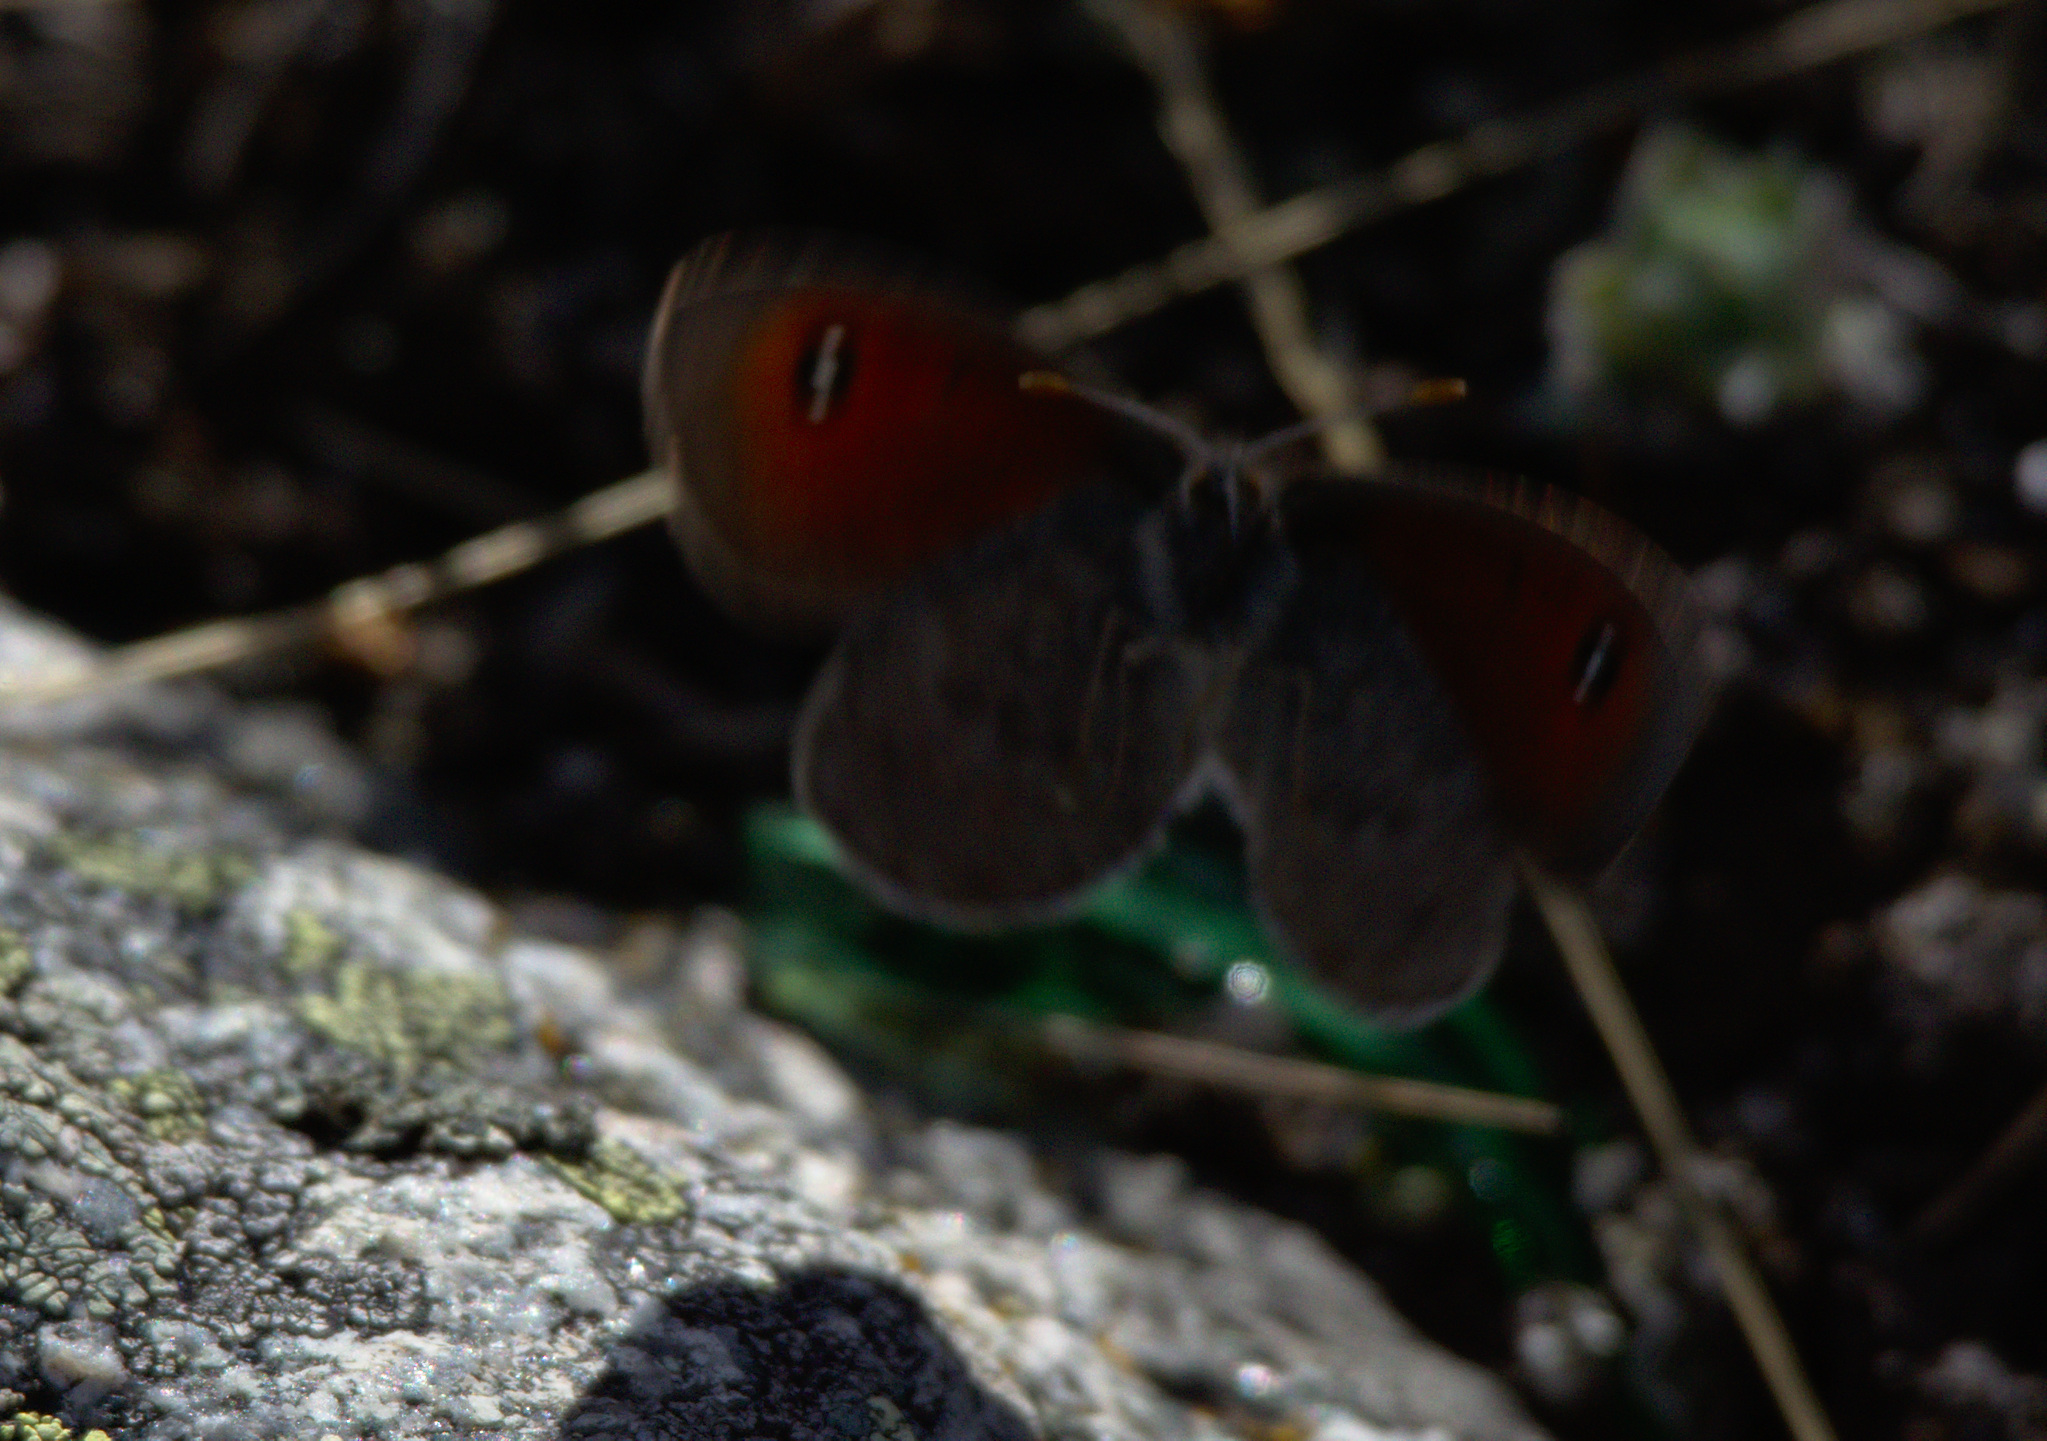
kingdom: Animalia
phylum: Arthropoda
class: Insecta
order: Lepidoptera
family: Nymphalidae
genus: Erebia
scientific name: Erebia tyndarus
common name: Swiss brassy ringlet
